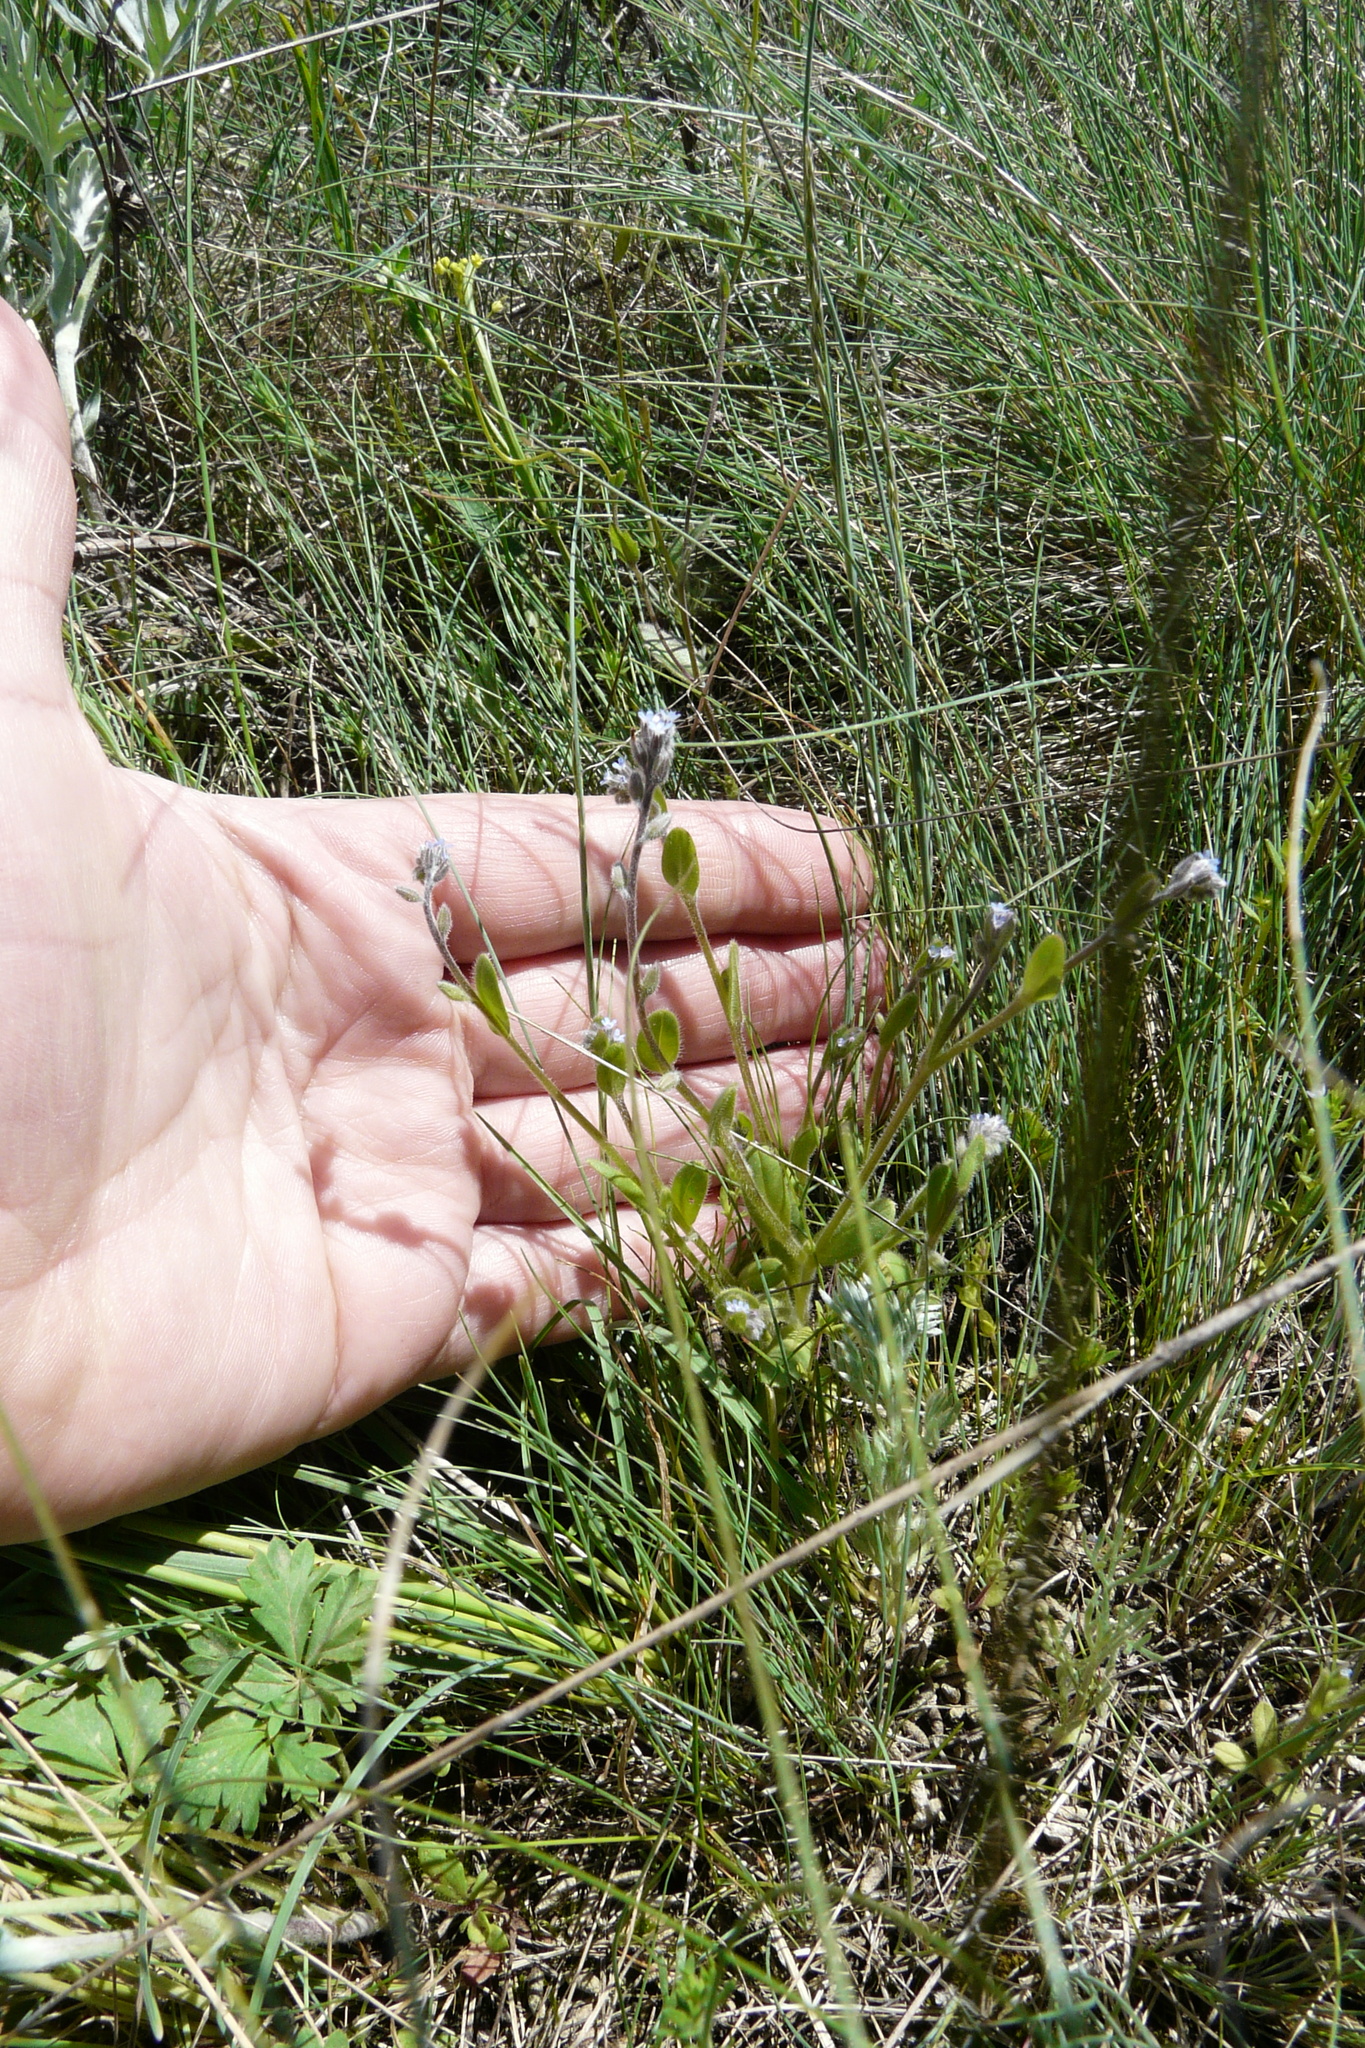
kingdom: Plantae
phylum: Tracheophyta
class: Magnoliopsida
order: Boraginales
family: Boraginaceae
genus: Myosotis
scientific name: Myosotis stricta
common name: Strict forget-me-not
